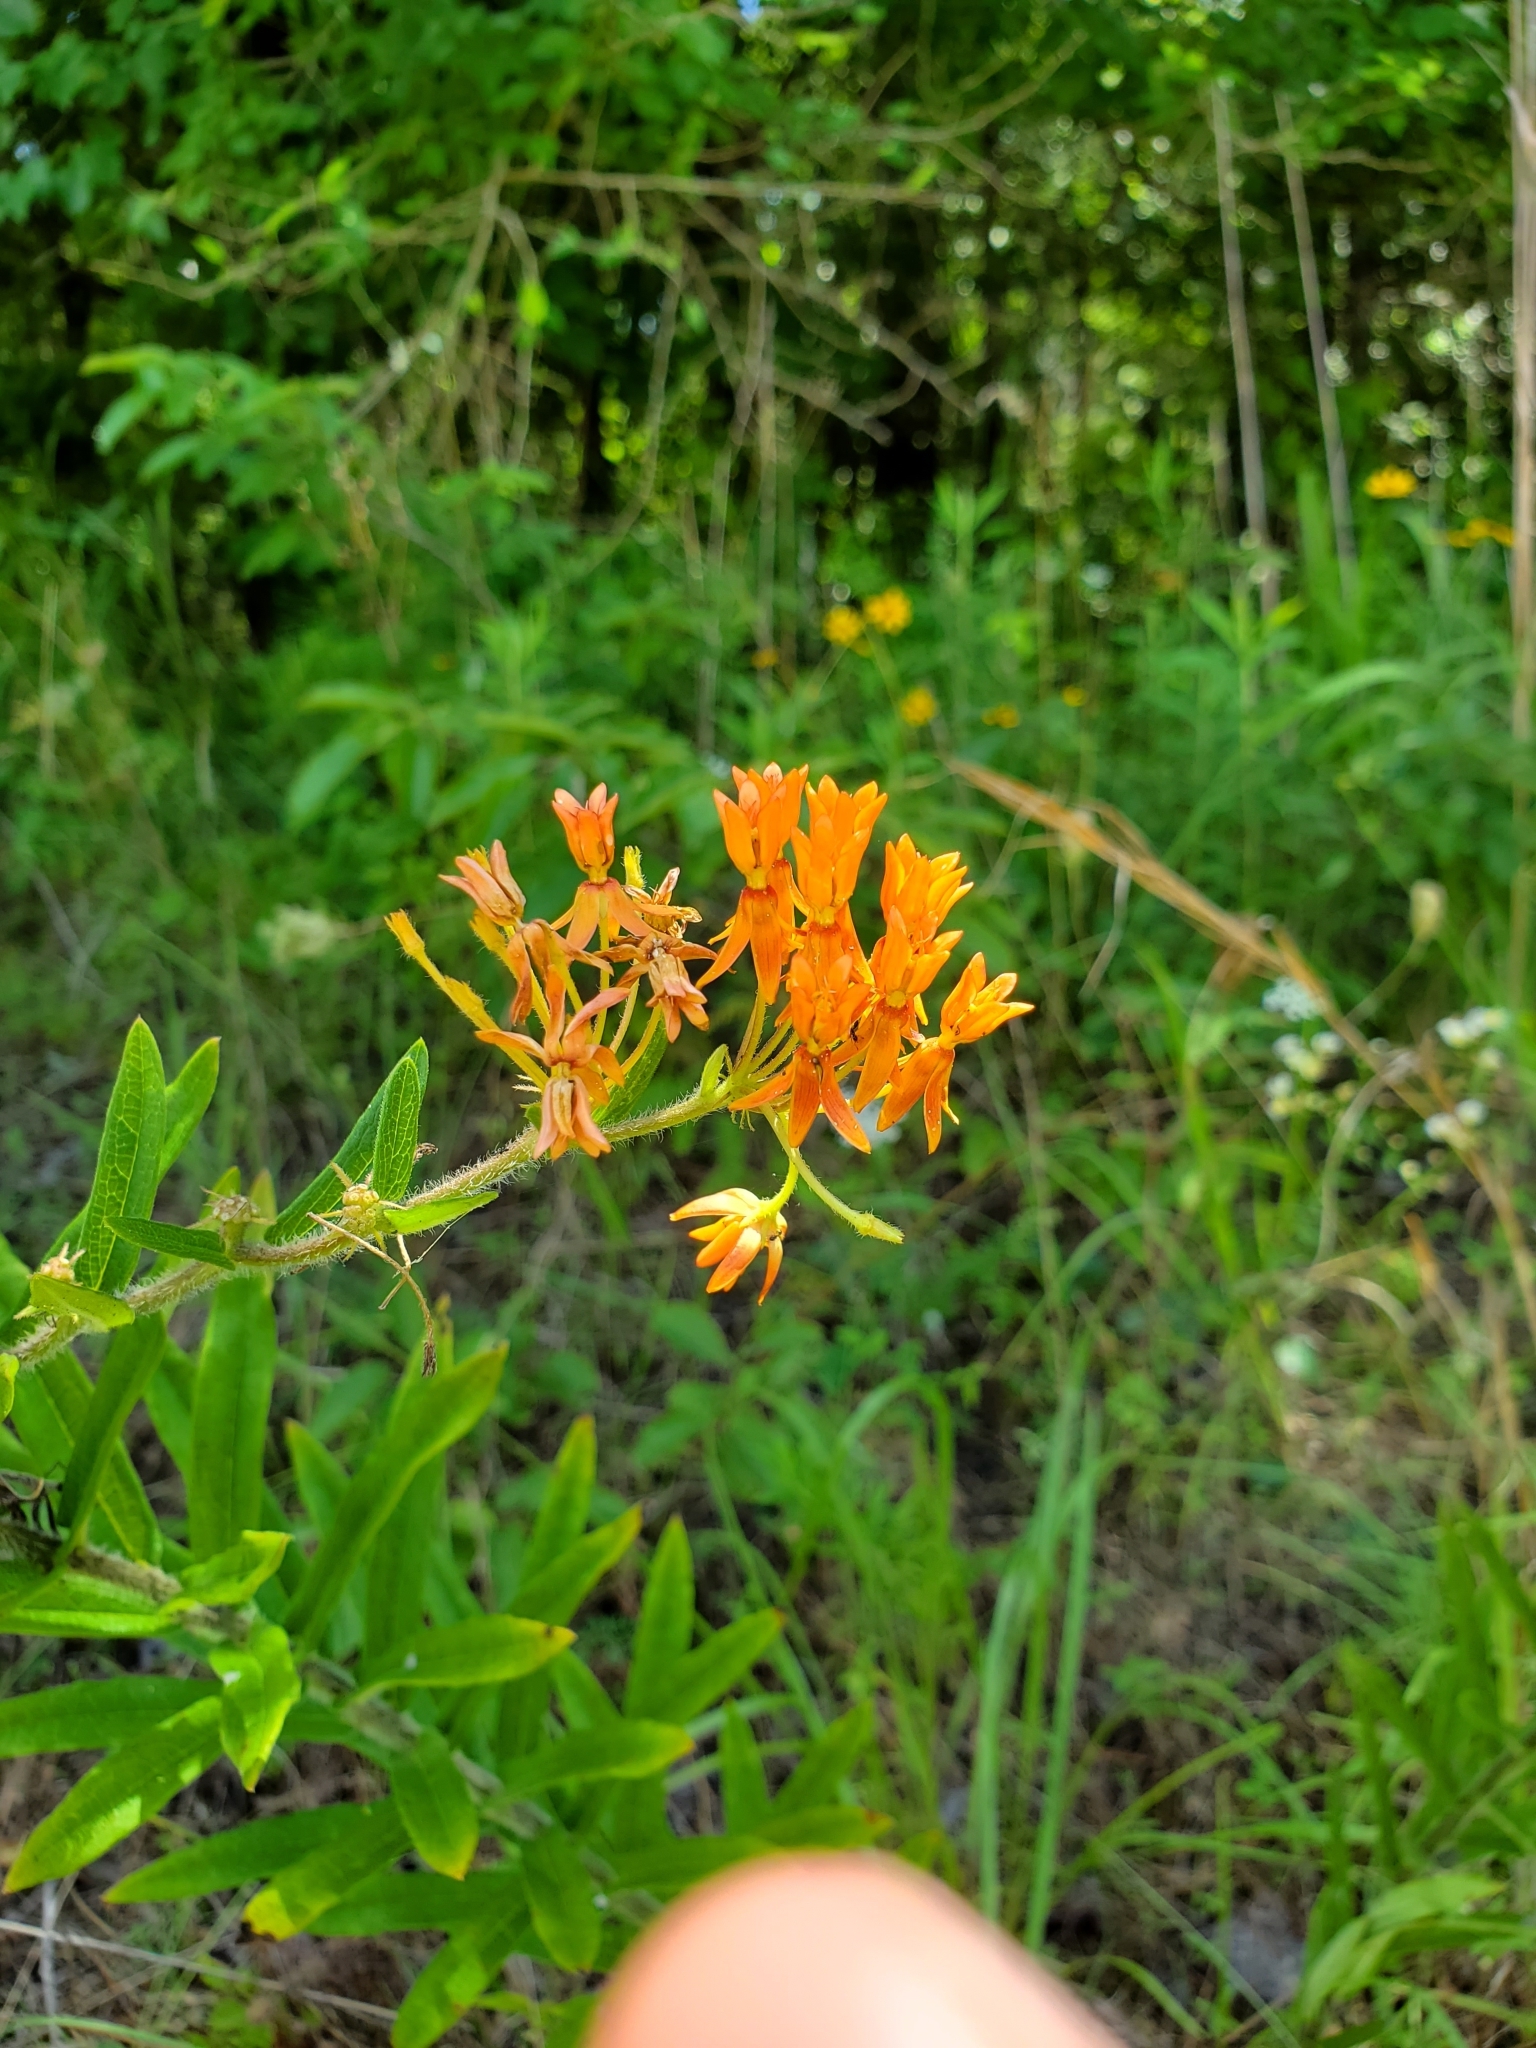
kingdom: Plantae
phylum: Tracheophyta
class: Magnoliopsida
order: Gentianales
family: Apocynaceae
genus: Asclepias
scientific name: Asclepias tuberosa
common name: Butterfly milkweed
